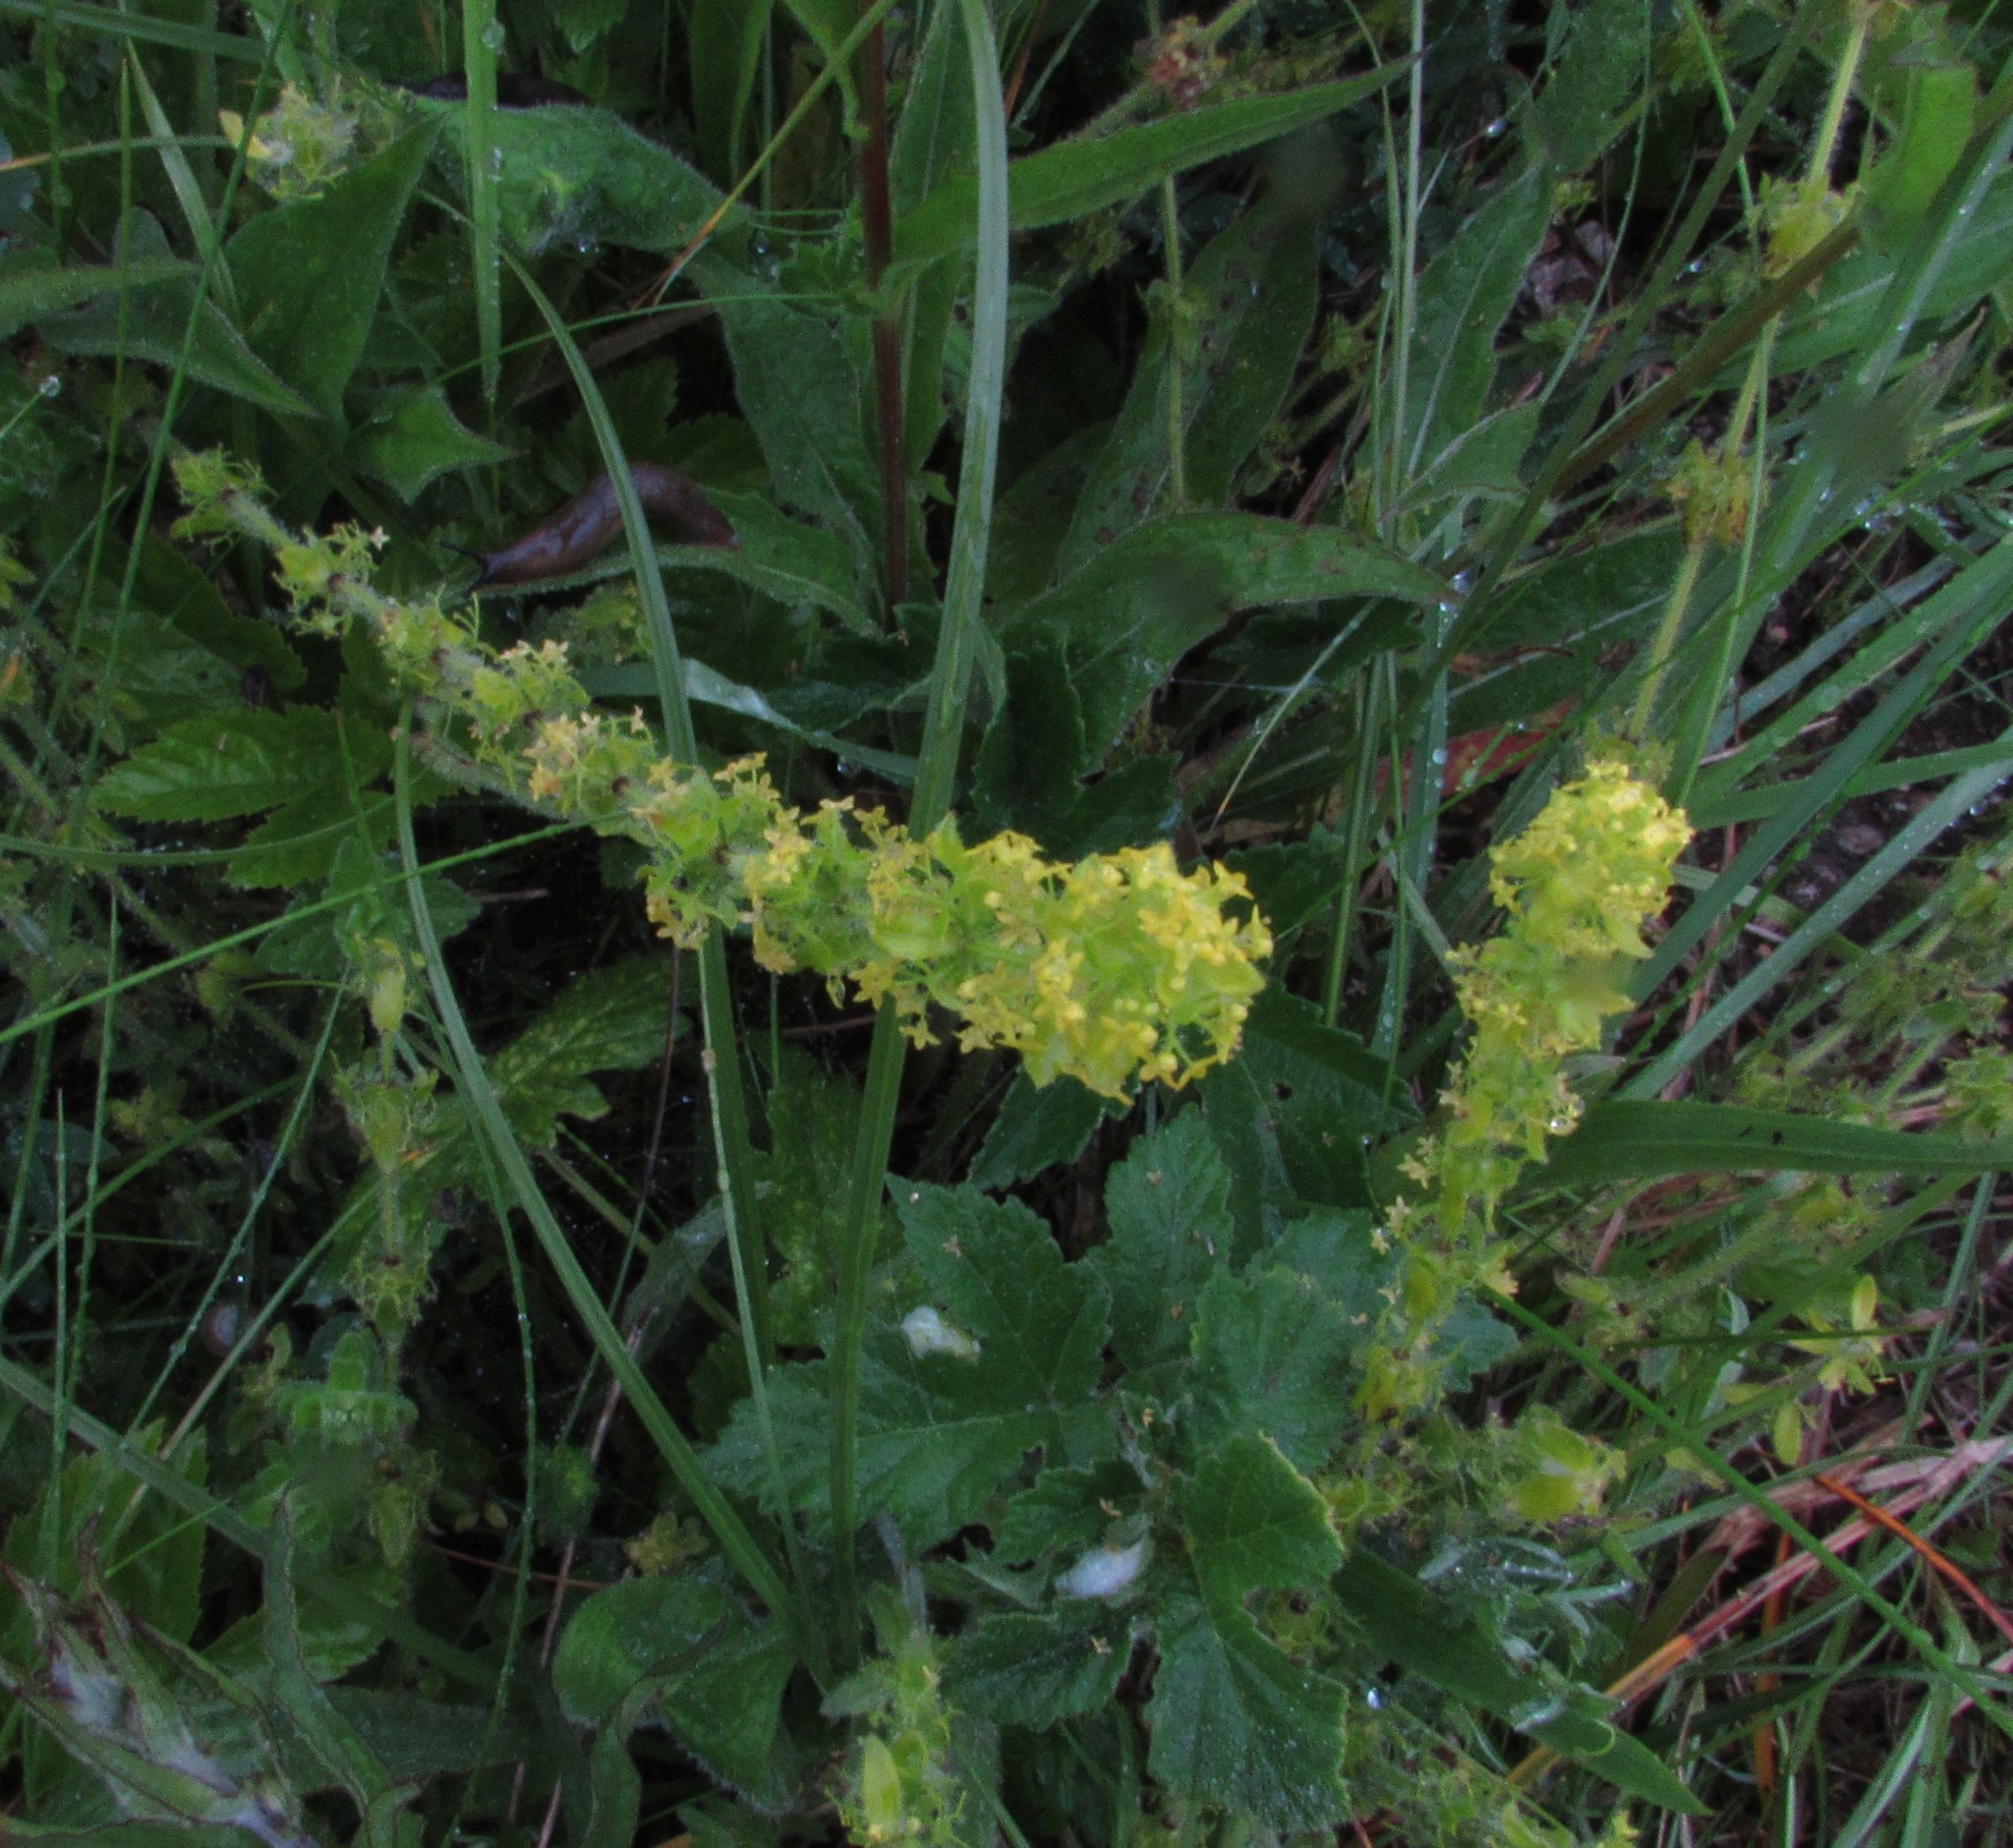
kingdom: Plantae
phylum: Tracheophyta
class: Magnoliopsida
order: Gentianales
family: Rubiaceae
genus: Cruciata
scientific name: Cruciata laevipes
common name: Crosswort
